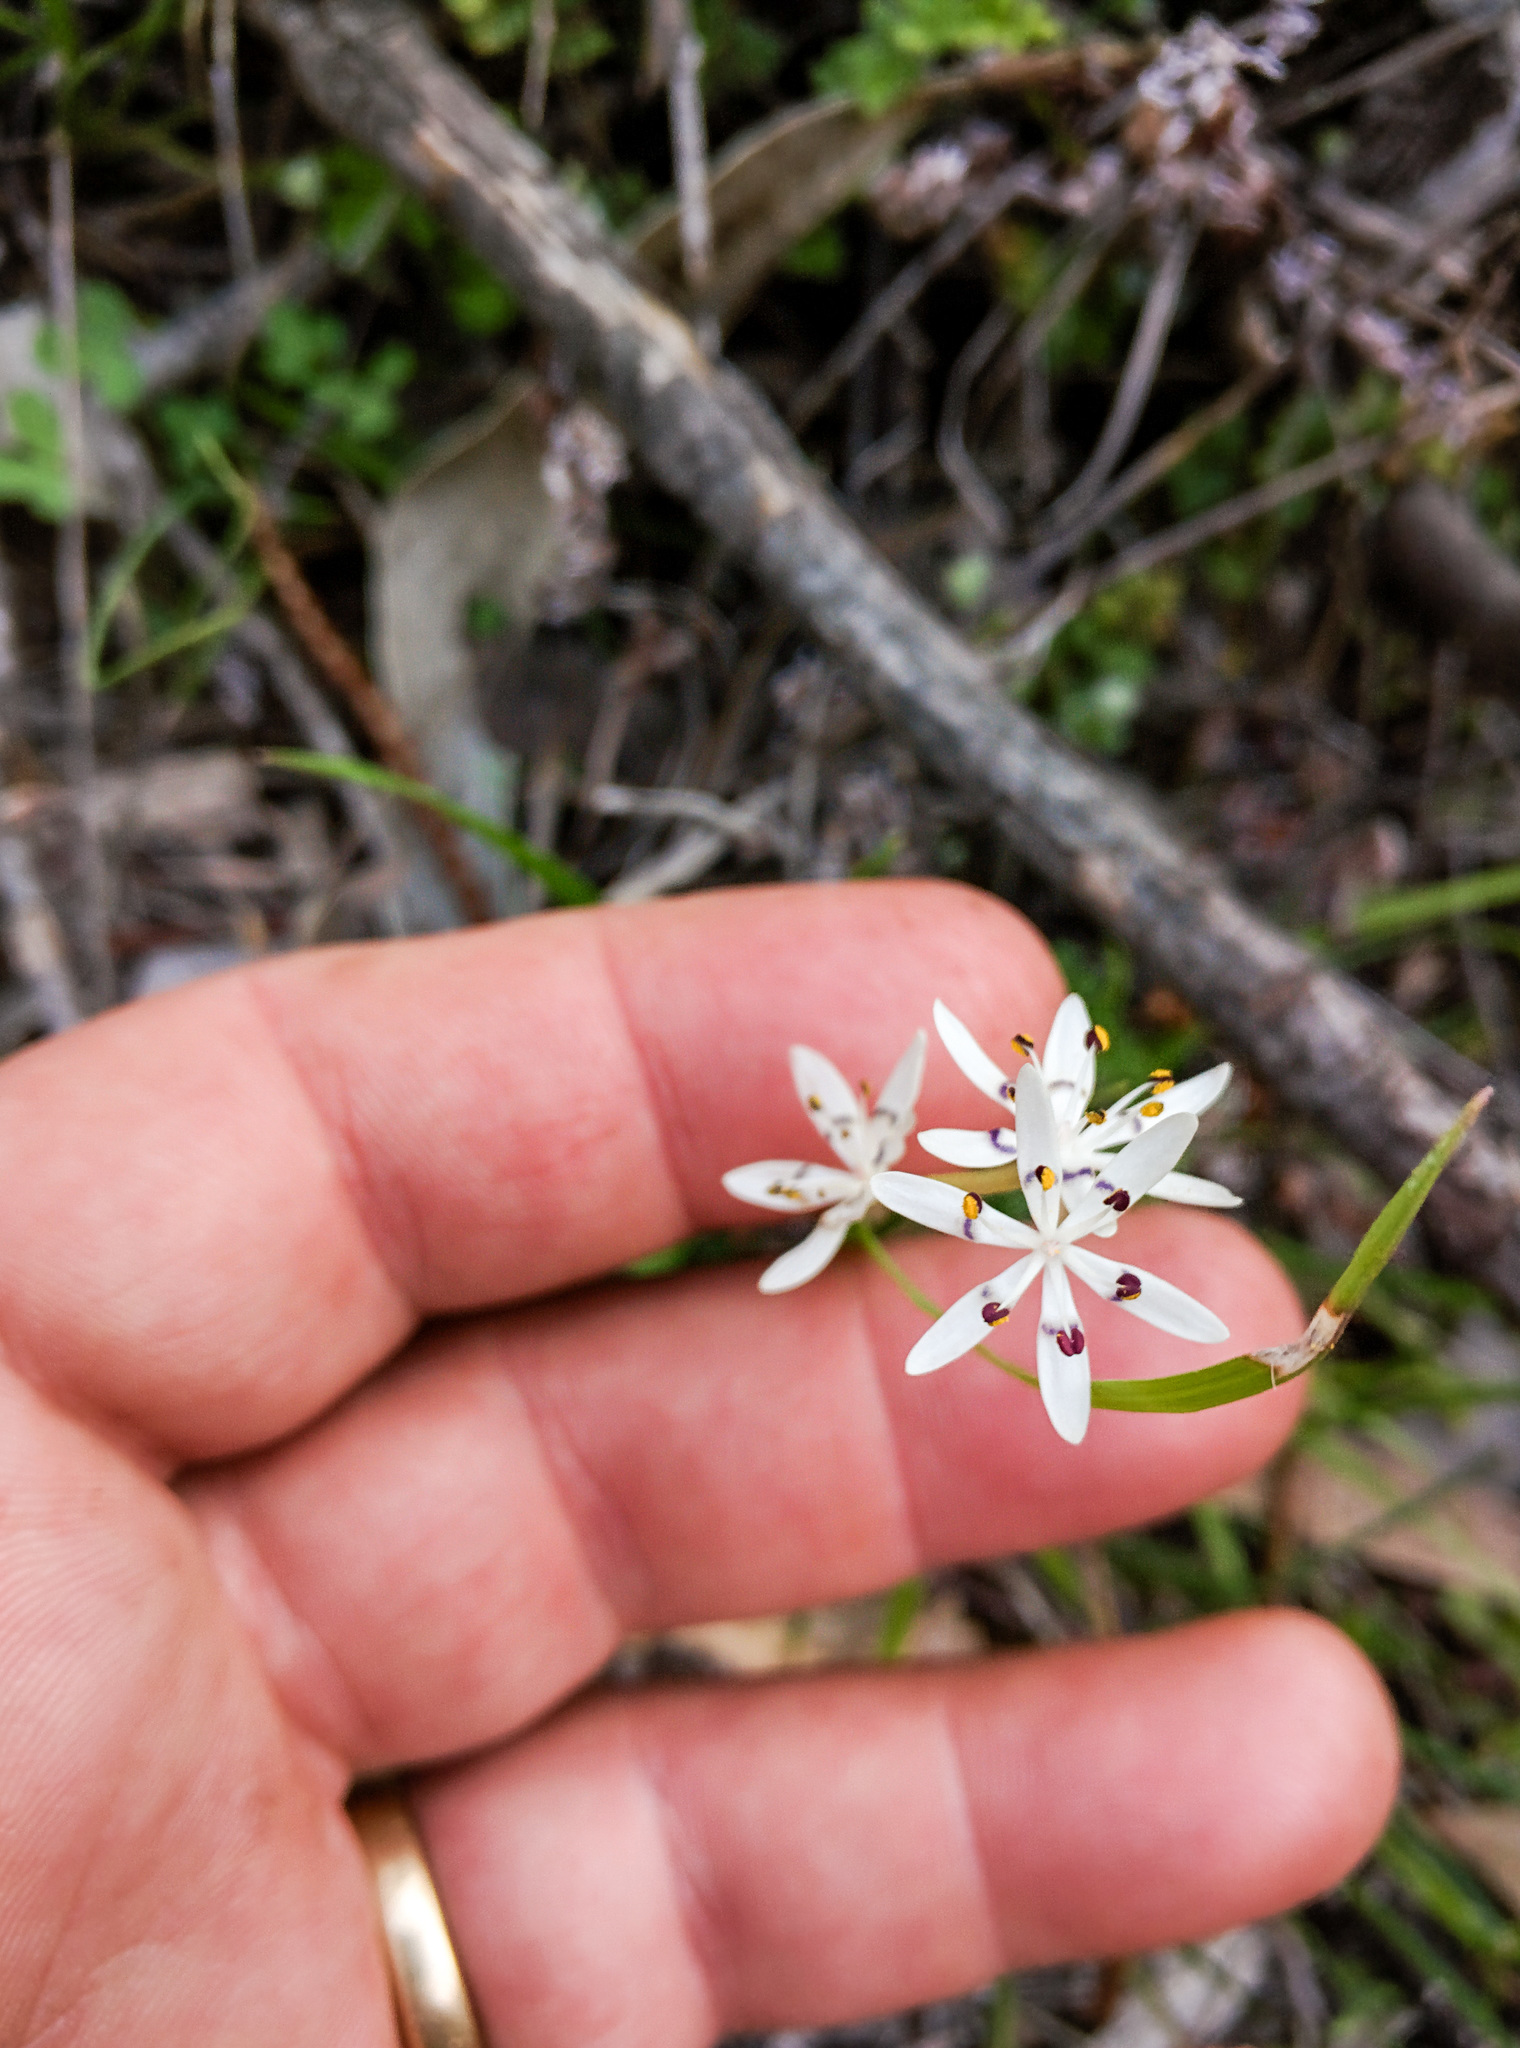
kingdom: Plantae
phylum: Tracheophyta
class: Liliopsida
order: Liliales
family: Colchicaceae
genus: Wurmbea
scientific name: Wurmbea dioica
